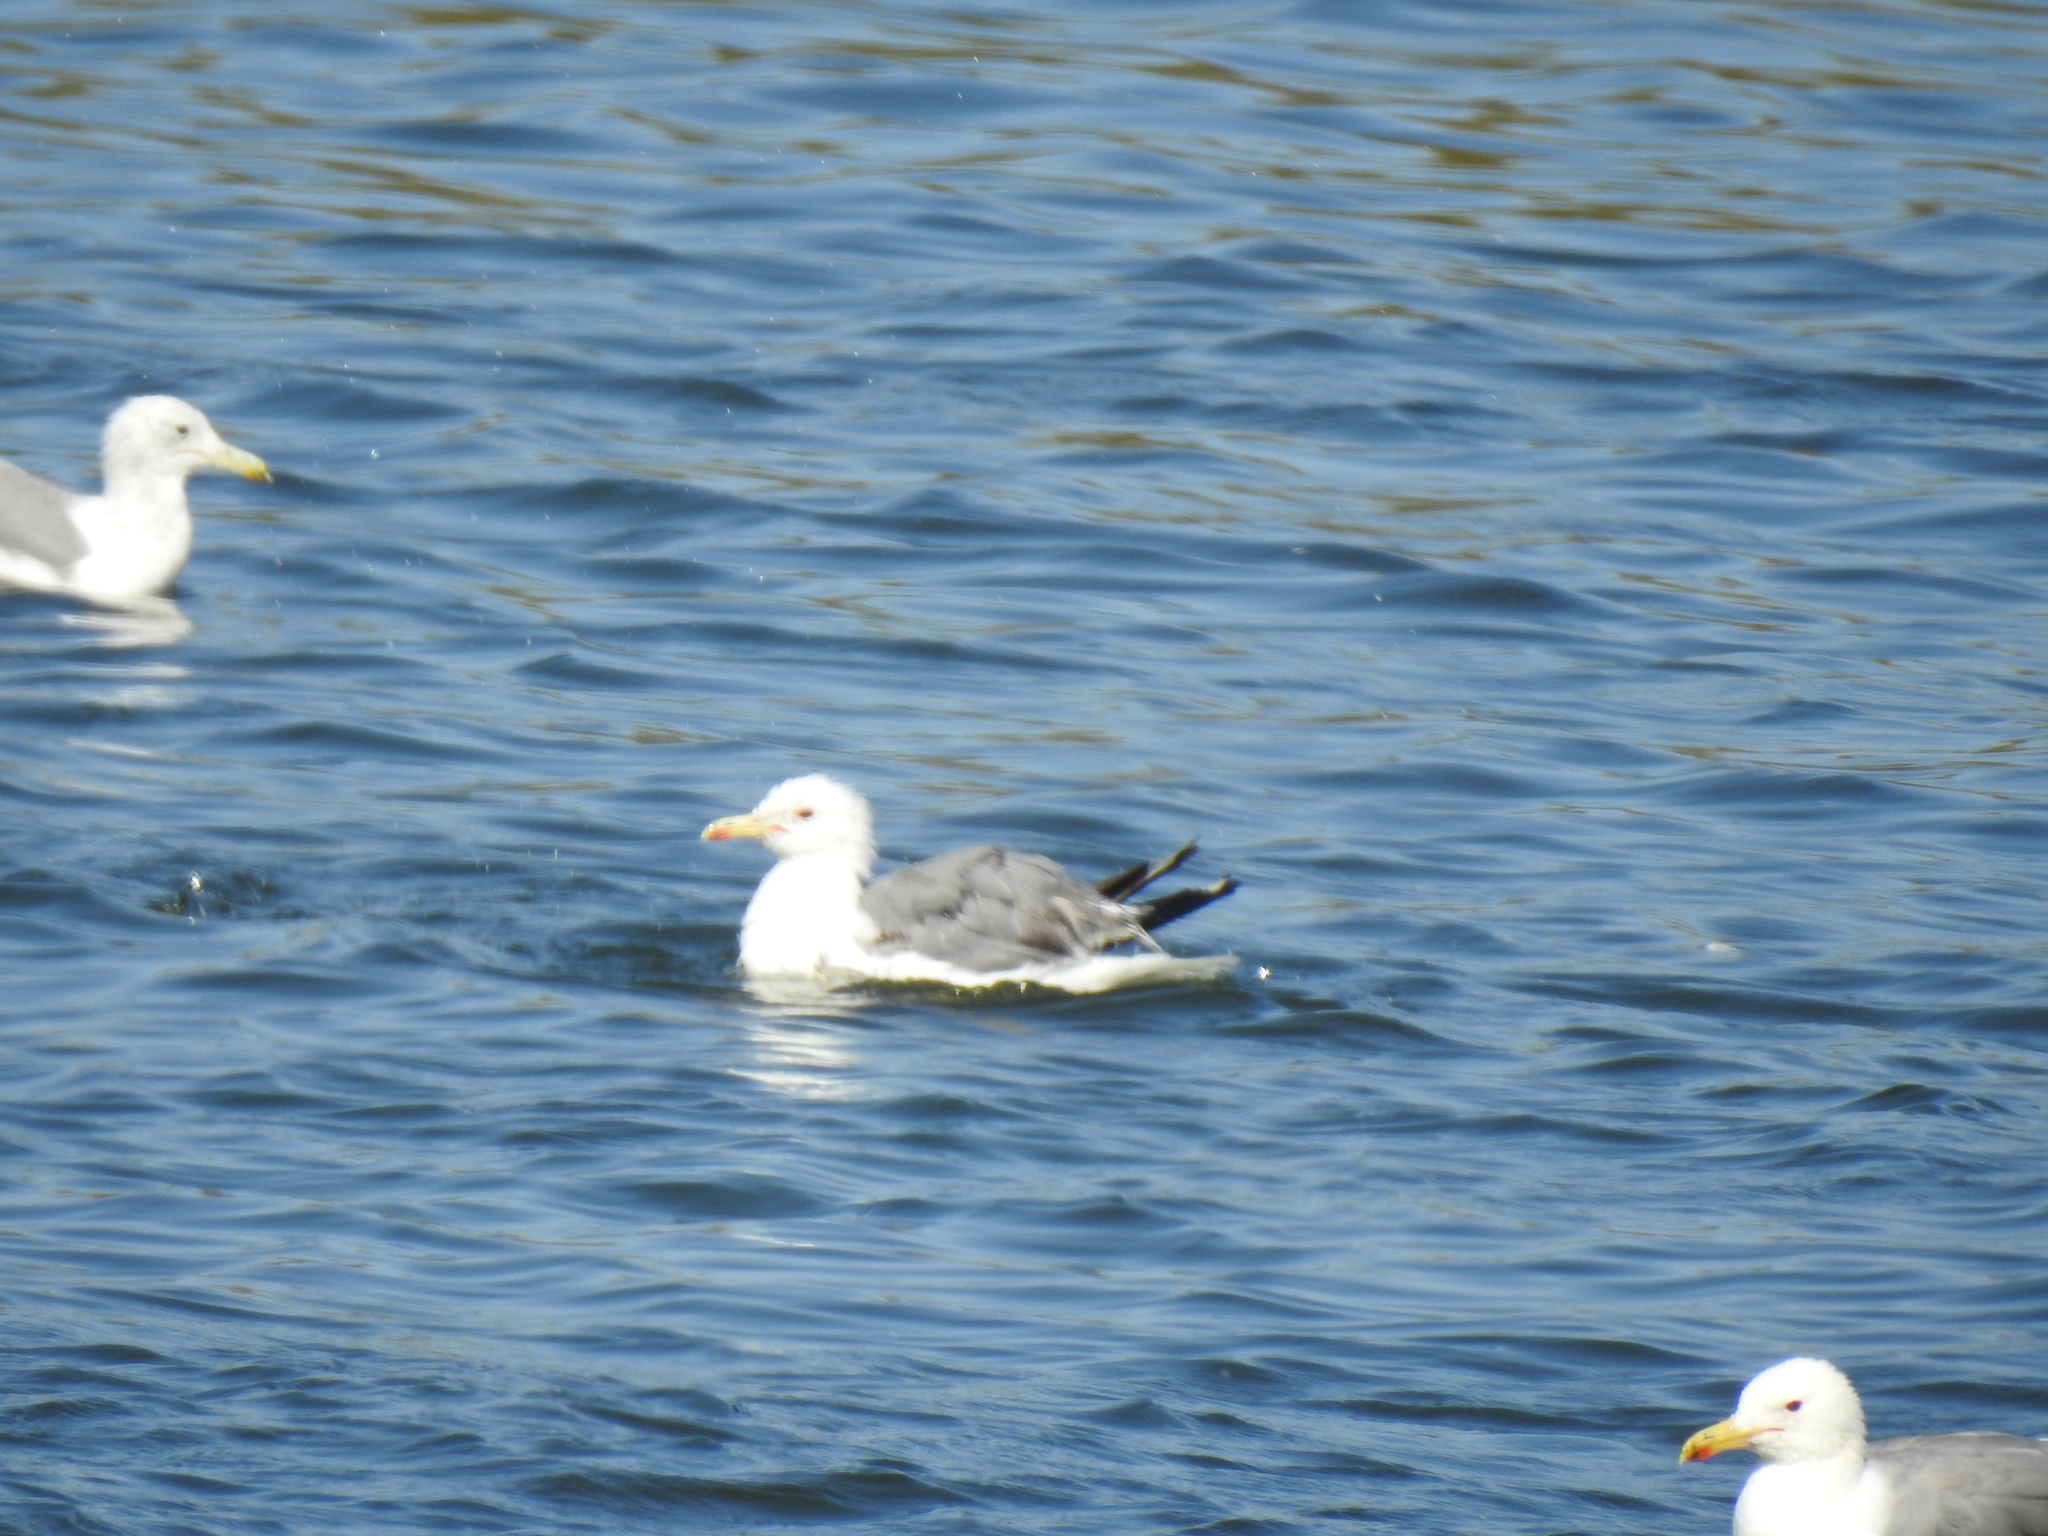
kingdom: Animalia
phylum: Chordata
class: Aves
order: Charadriiformes
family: Laridae
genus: Larus
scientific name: Larus californicus
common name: California gull
